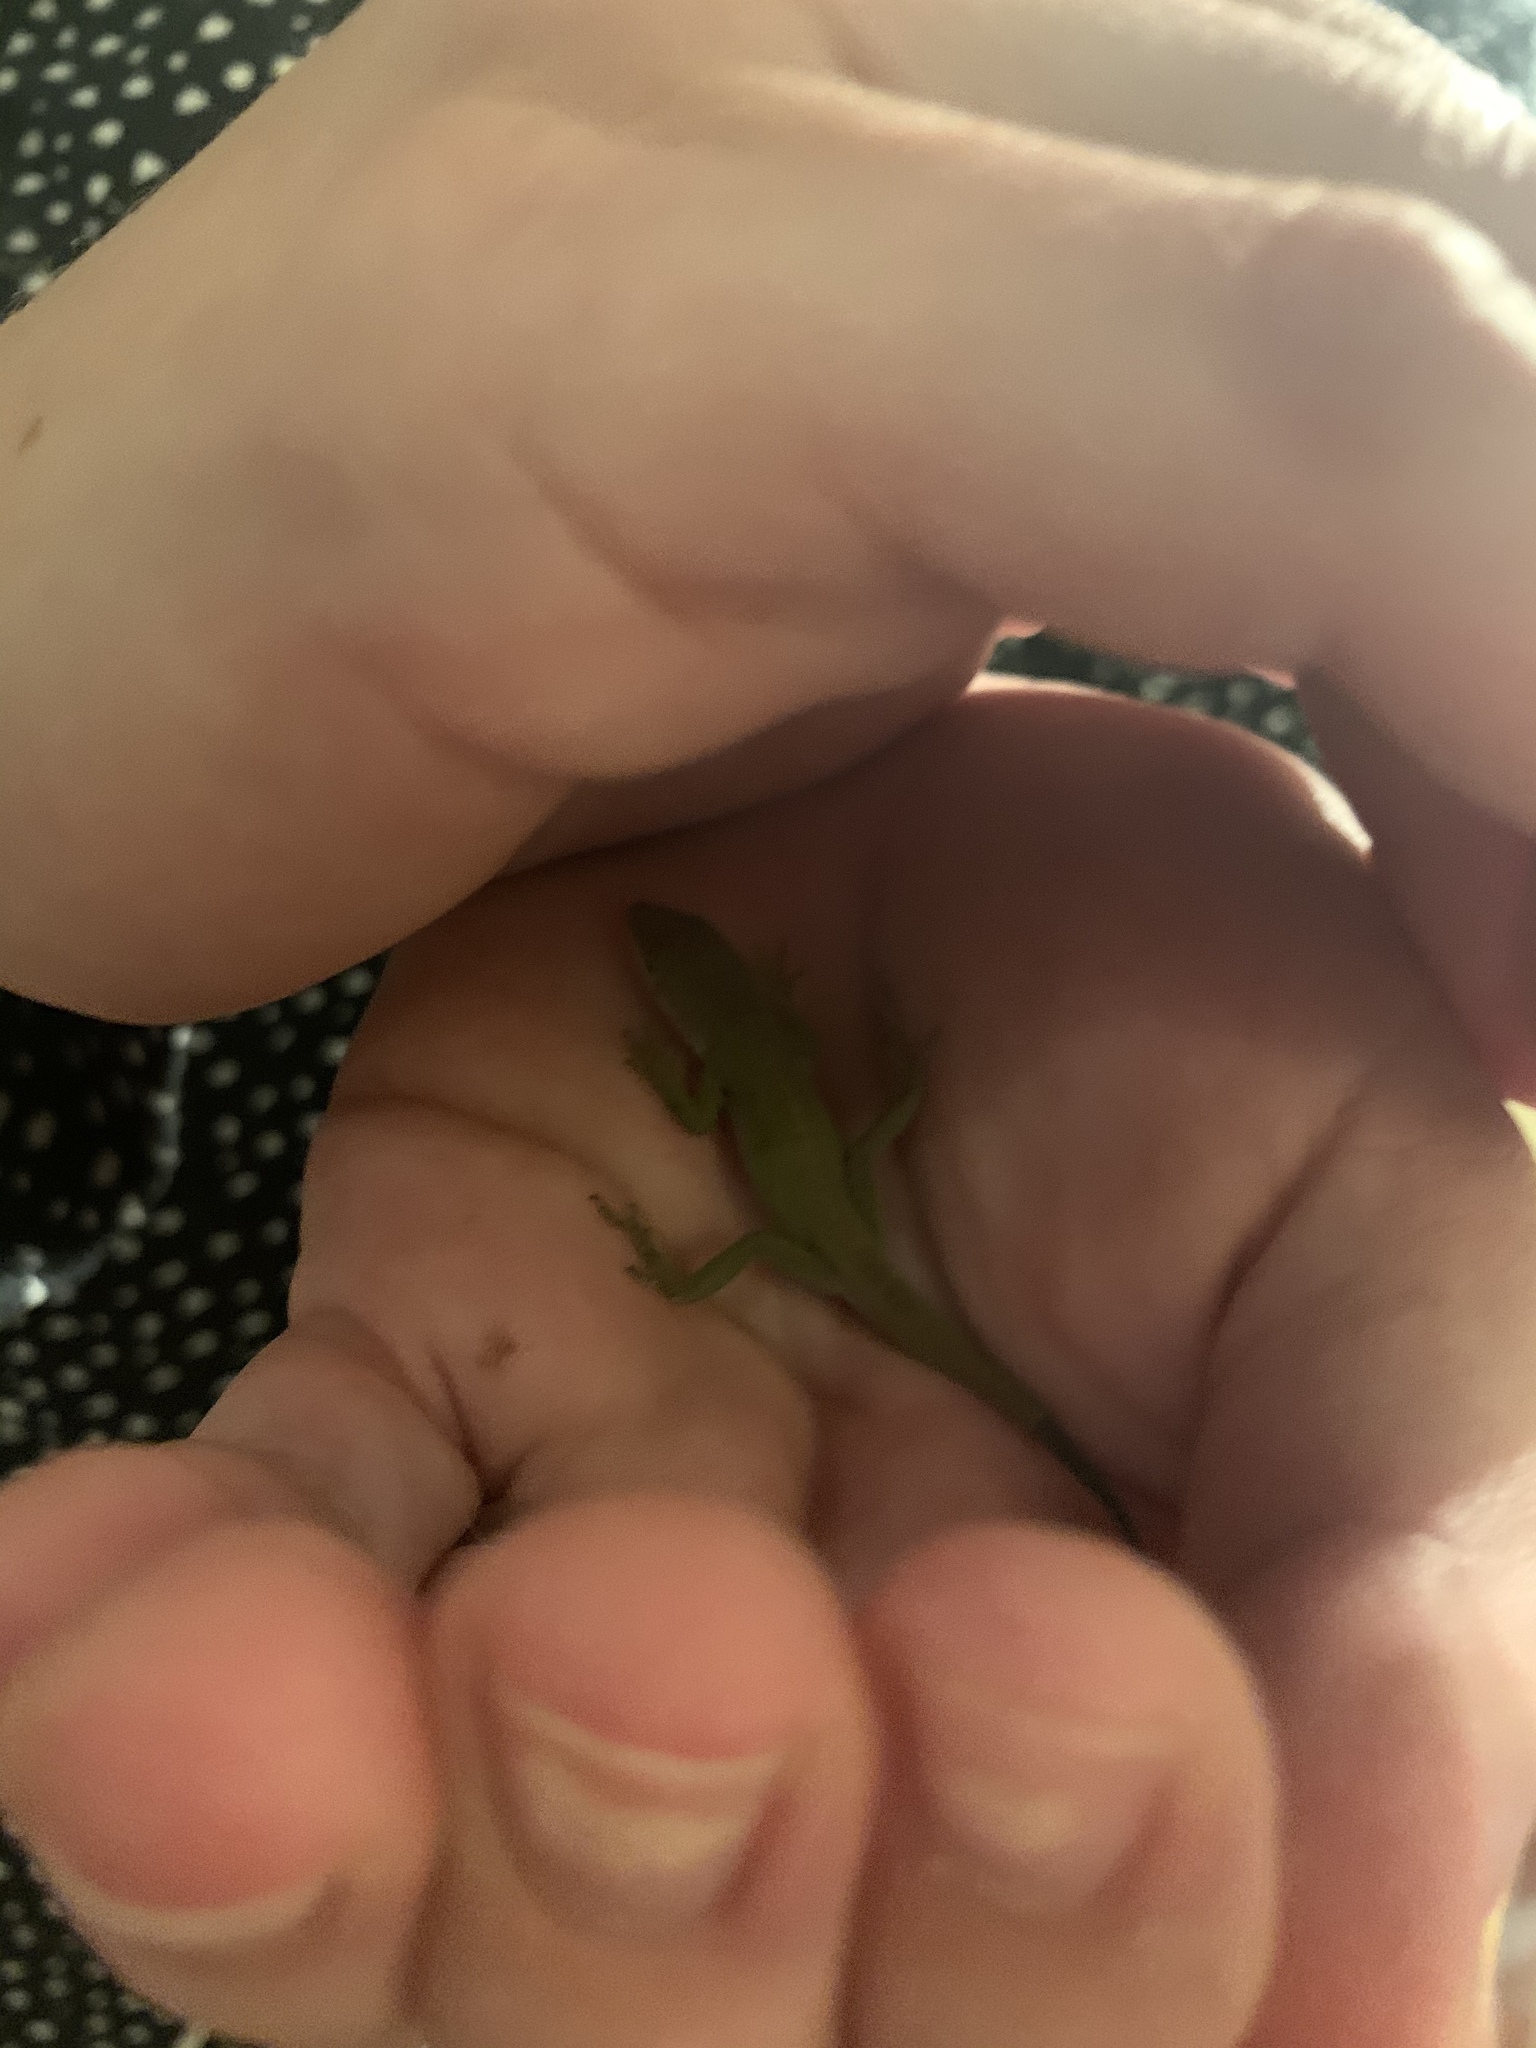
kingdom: Animalia
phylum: Chordata
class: Squamata
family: Dactyloidae
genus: Anolis
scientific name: Anolis carolinensis
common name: Green anole
